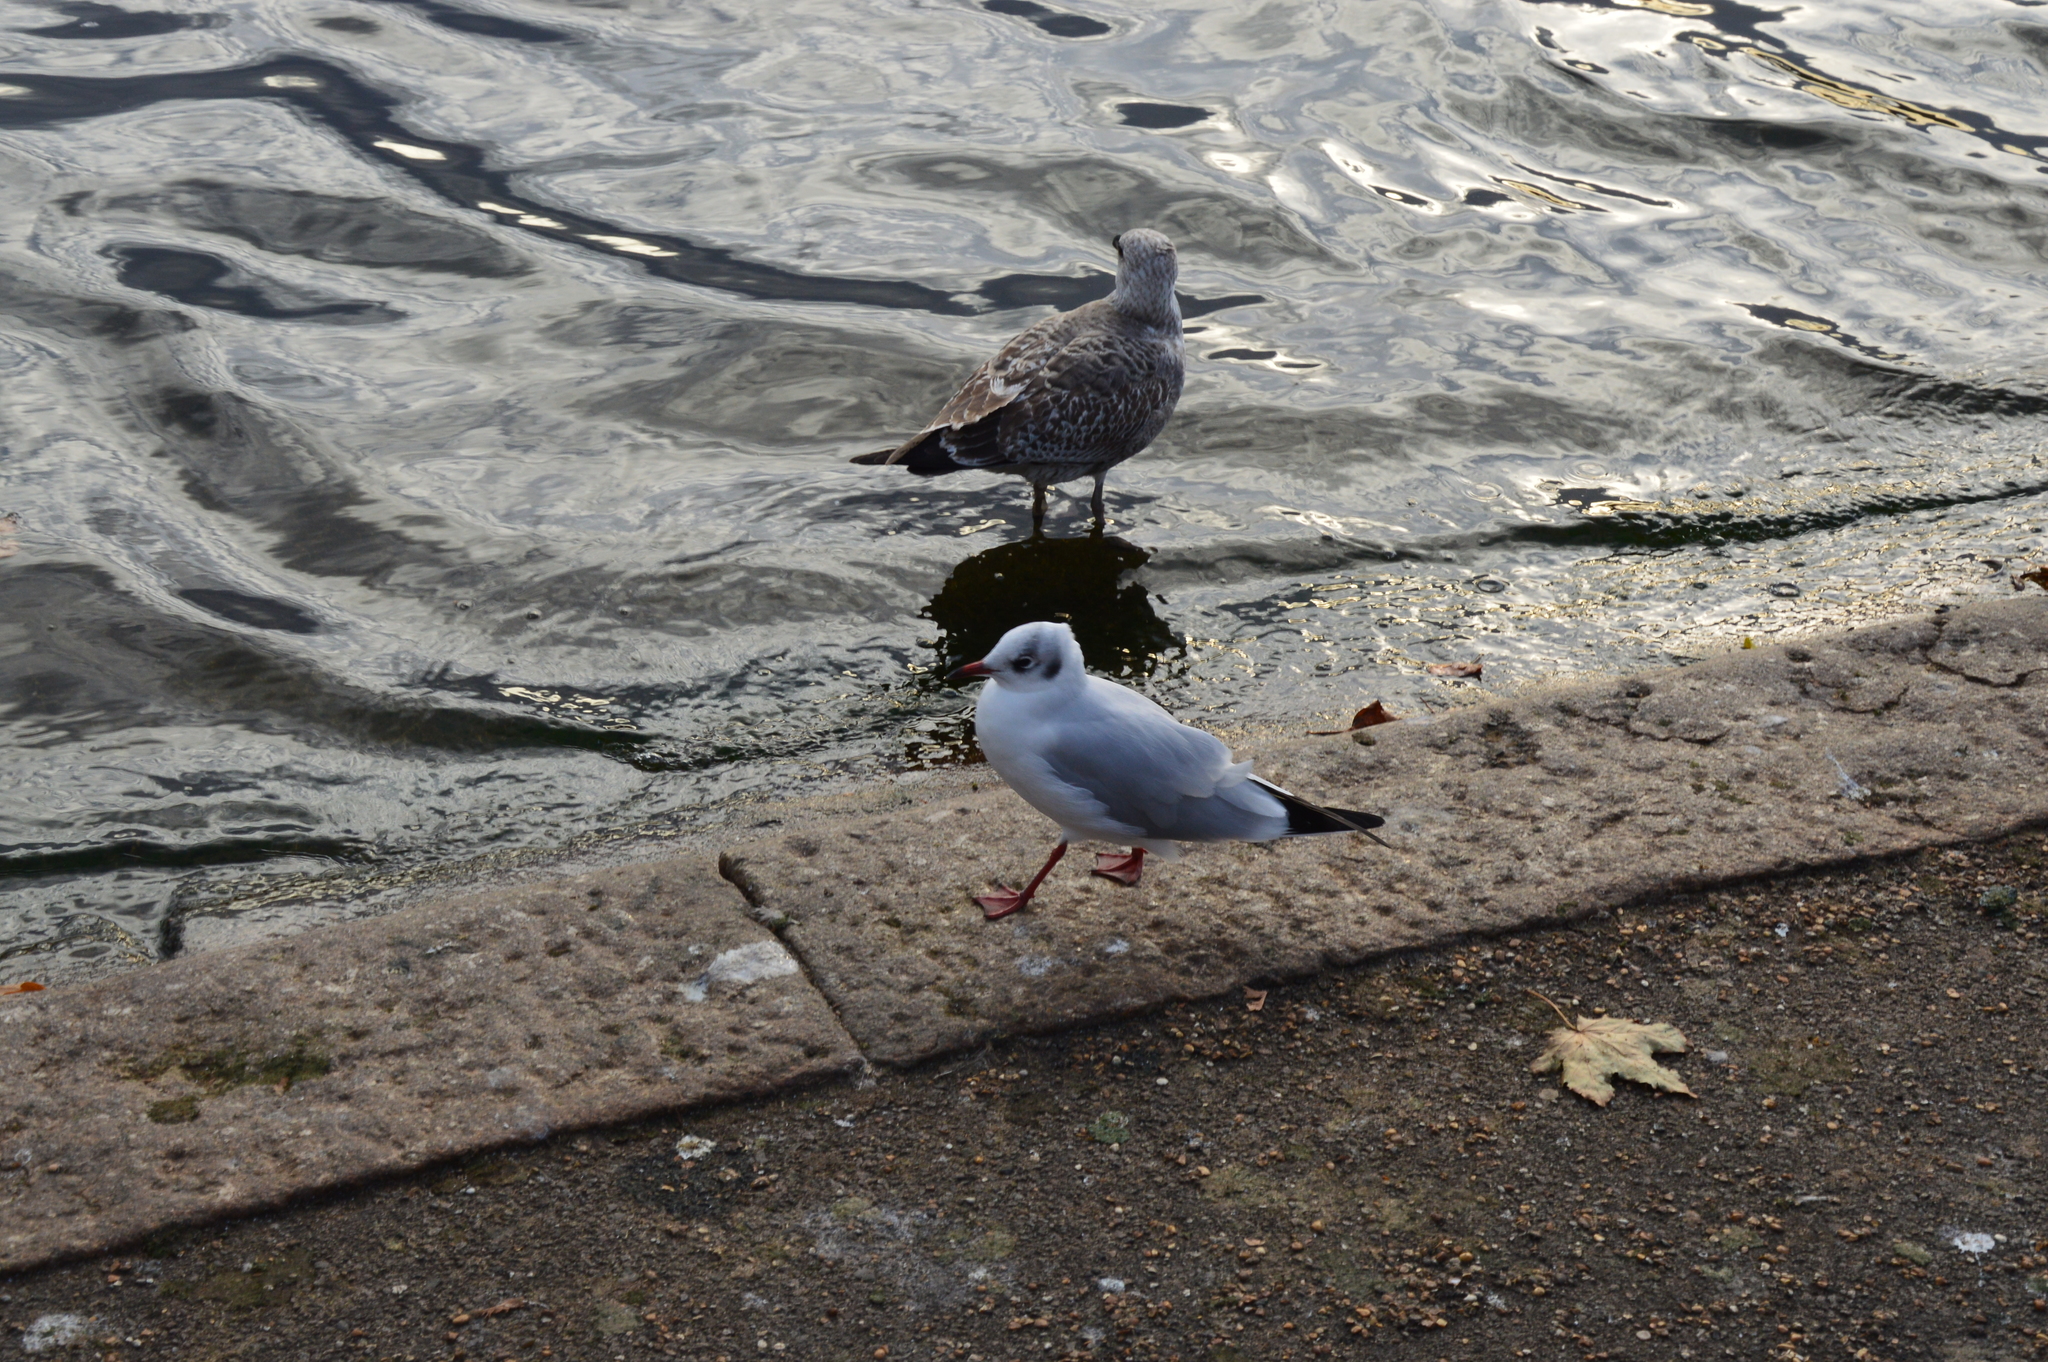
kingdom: Animalia
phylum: Chordata
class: Aves
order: Charadriiformes
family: Laridae
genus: Chroicocephalus
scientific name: Chroicocephalus ridibundus
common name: Black-headed gull
